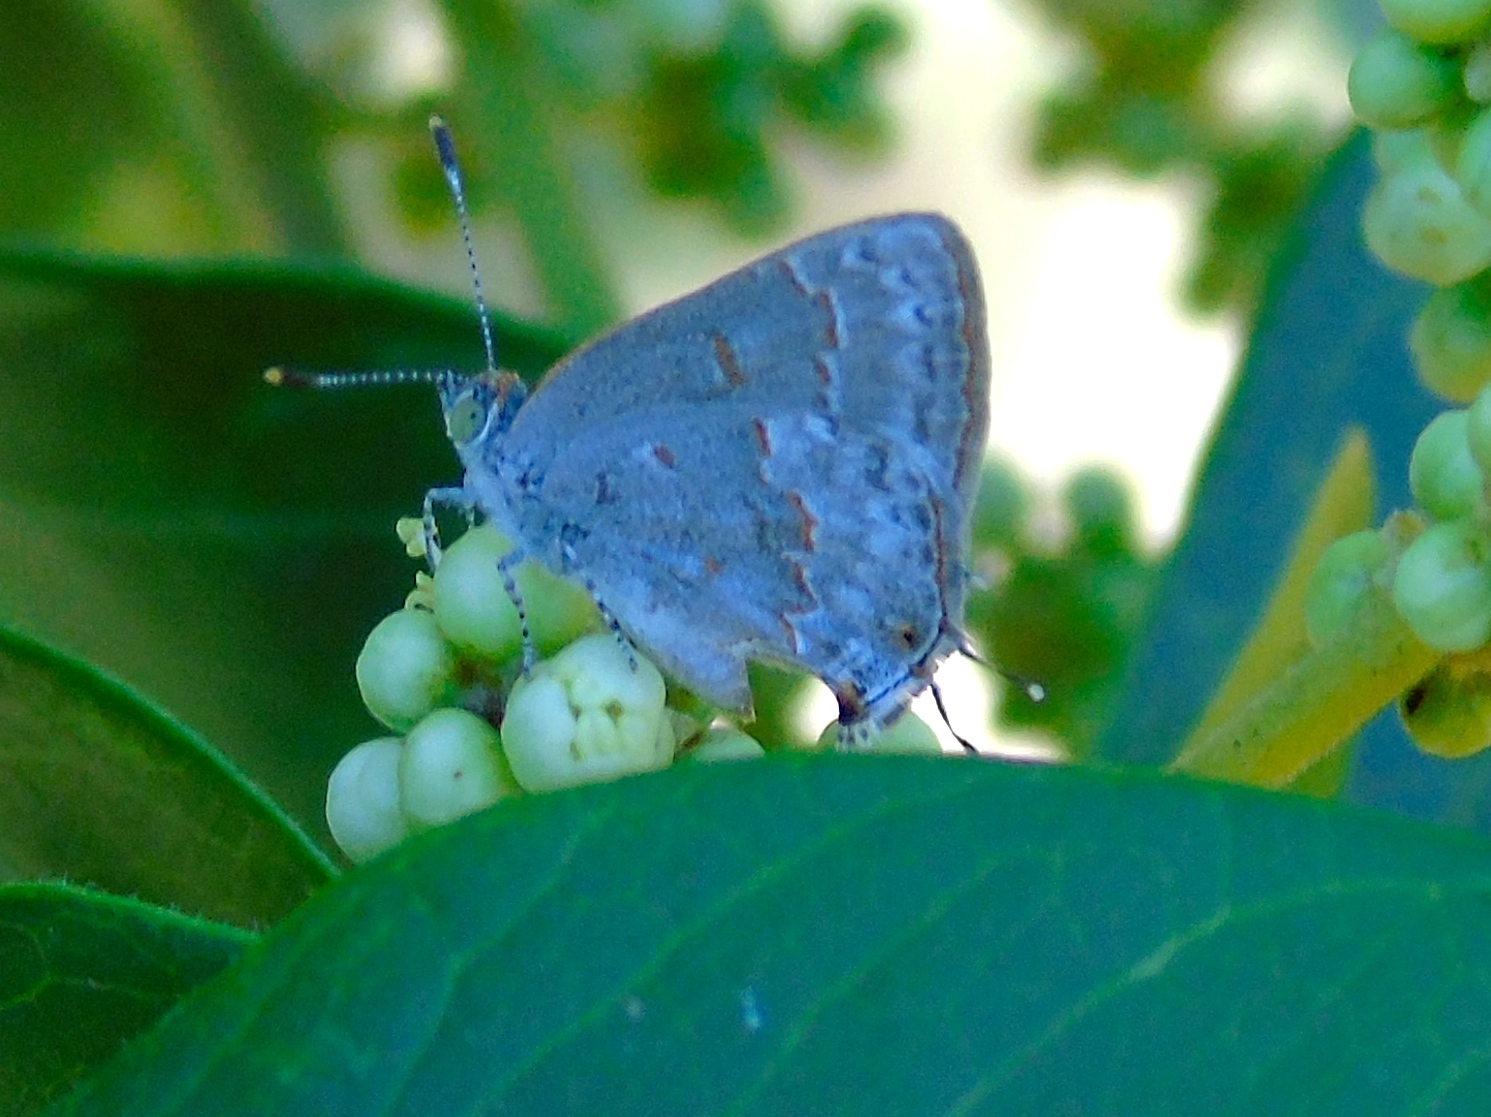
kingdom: Animalia
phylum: Arthropoda
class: Insecta
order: Lepidoptera
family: Lycaenidae
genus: Ministrymon
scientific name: Ministrymon clytie
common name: Clytie ministreak
